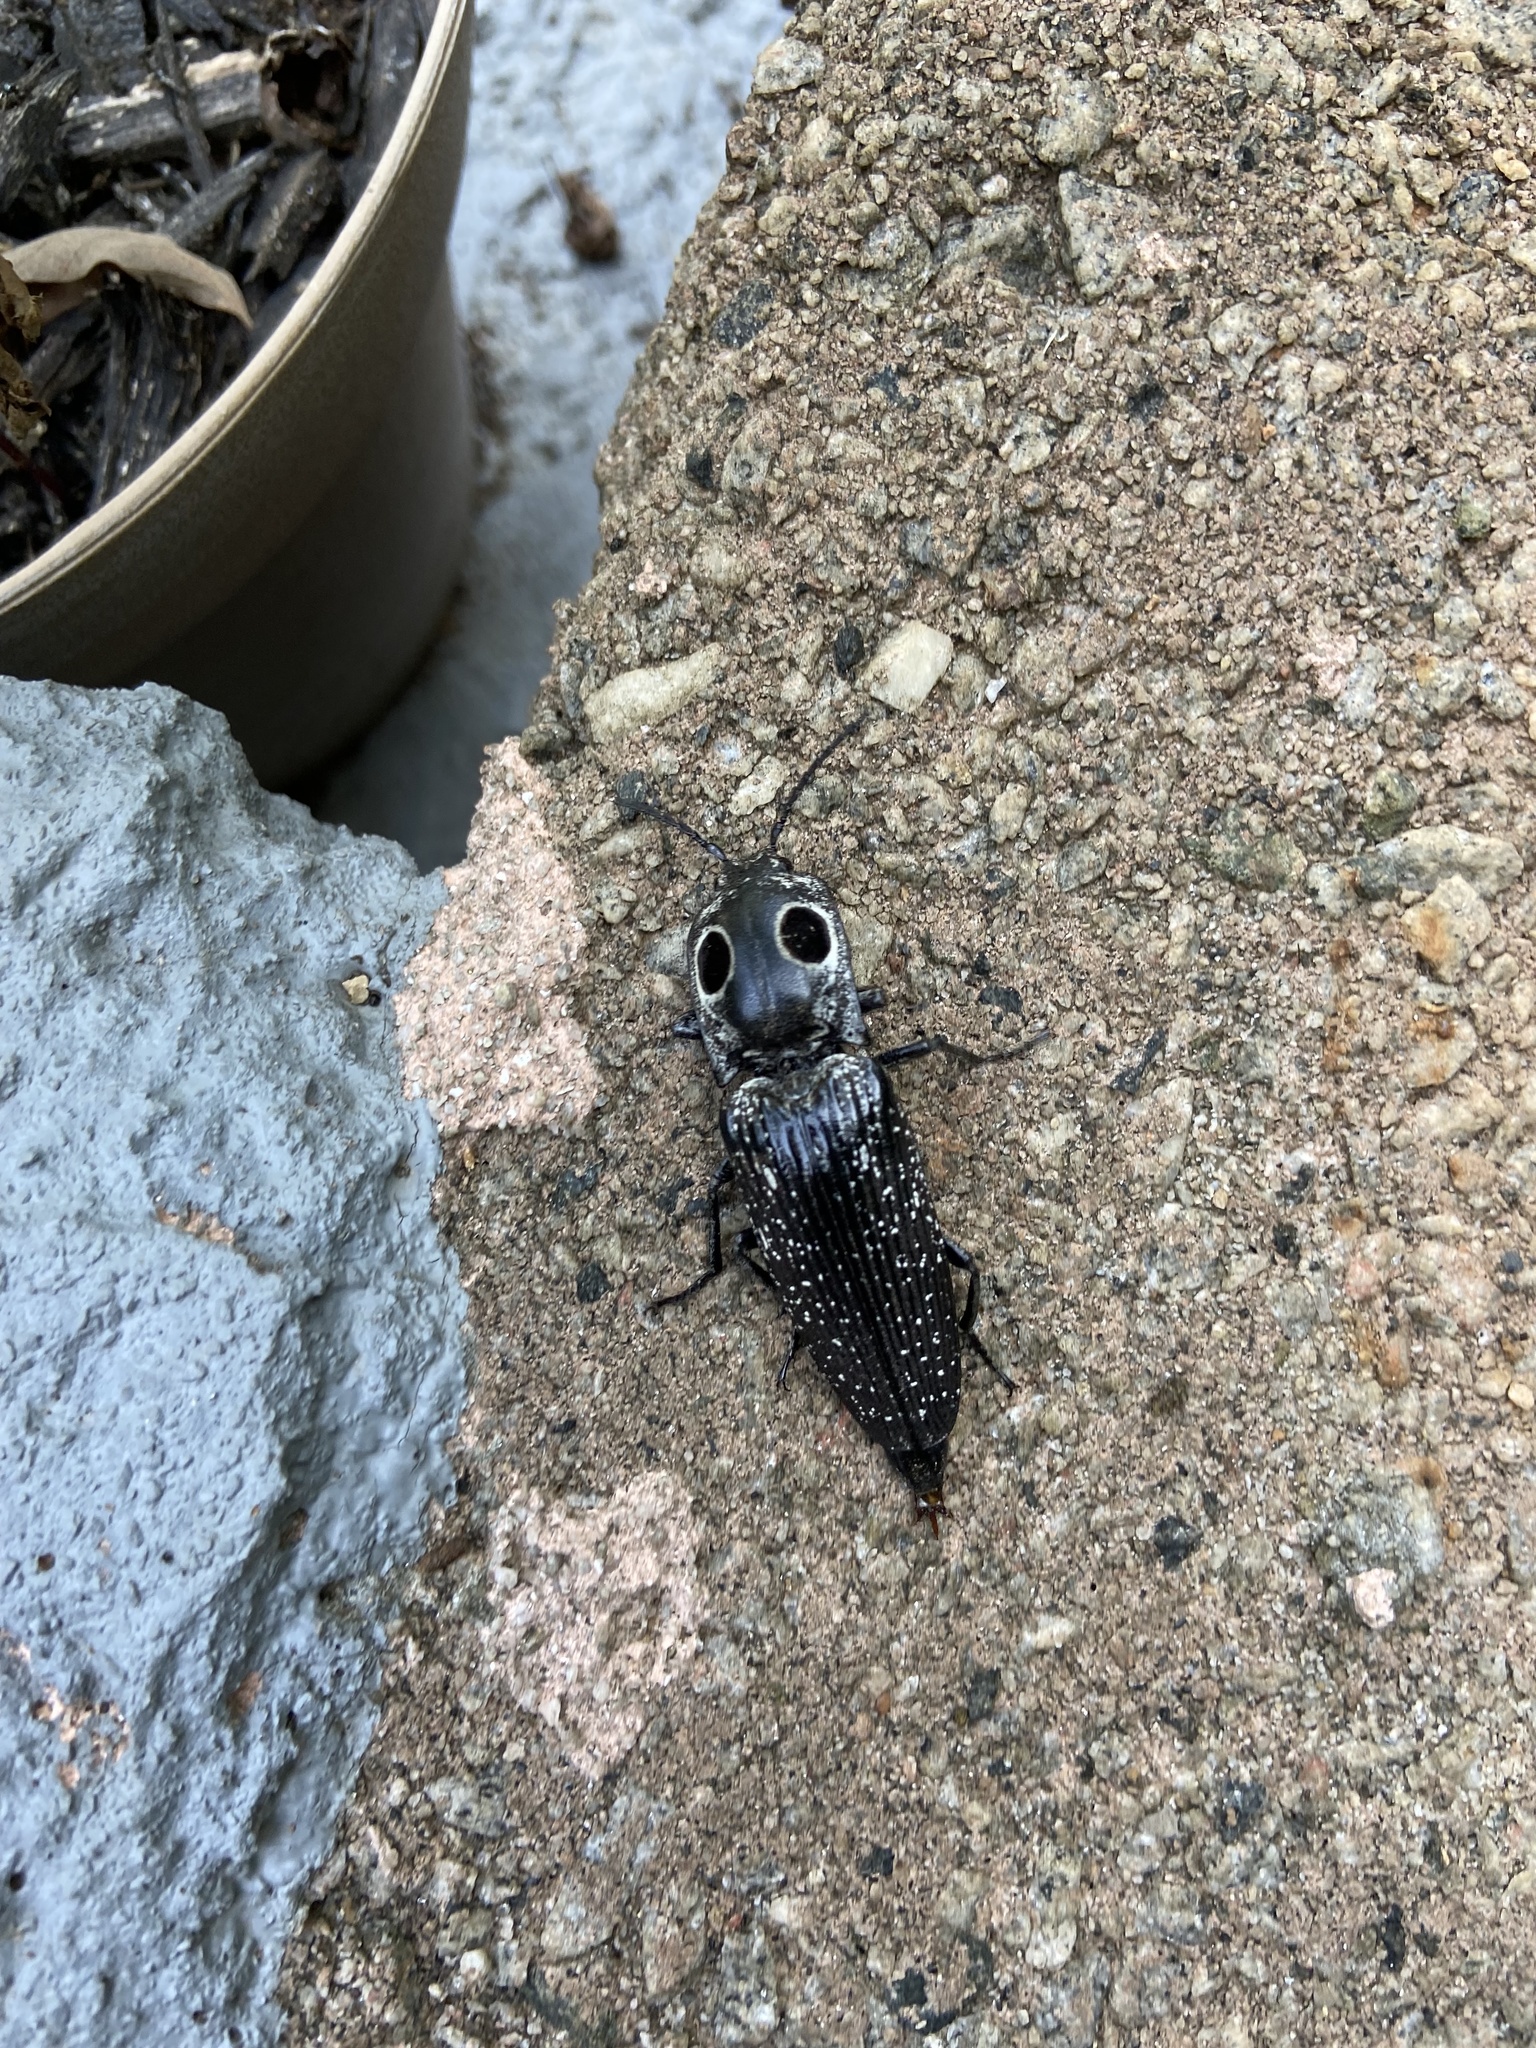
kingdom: Animalia
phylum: Arthropoda
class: Insecta
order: Coleoptera
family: Elateridae
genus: Alaus
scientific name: Alaus oculatus
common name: Eastern eyed click beetle
